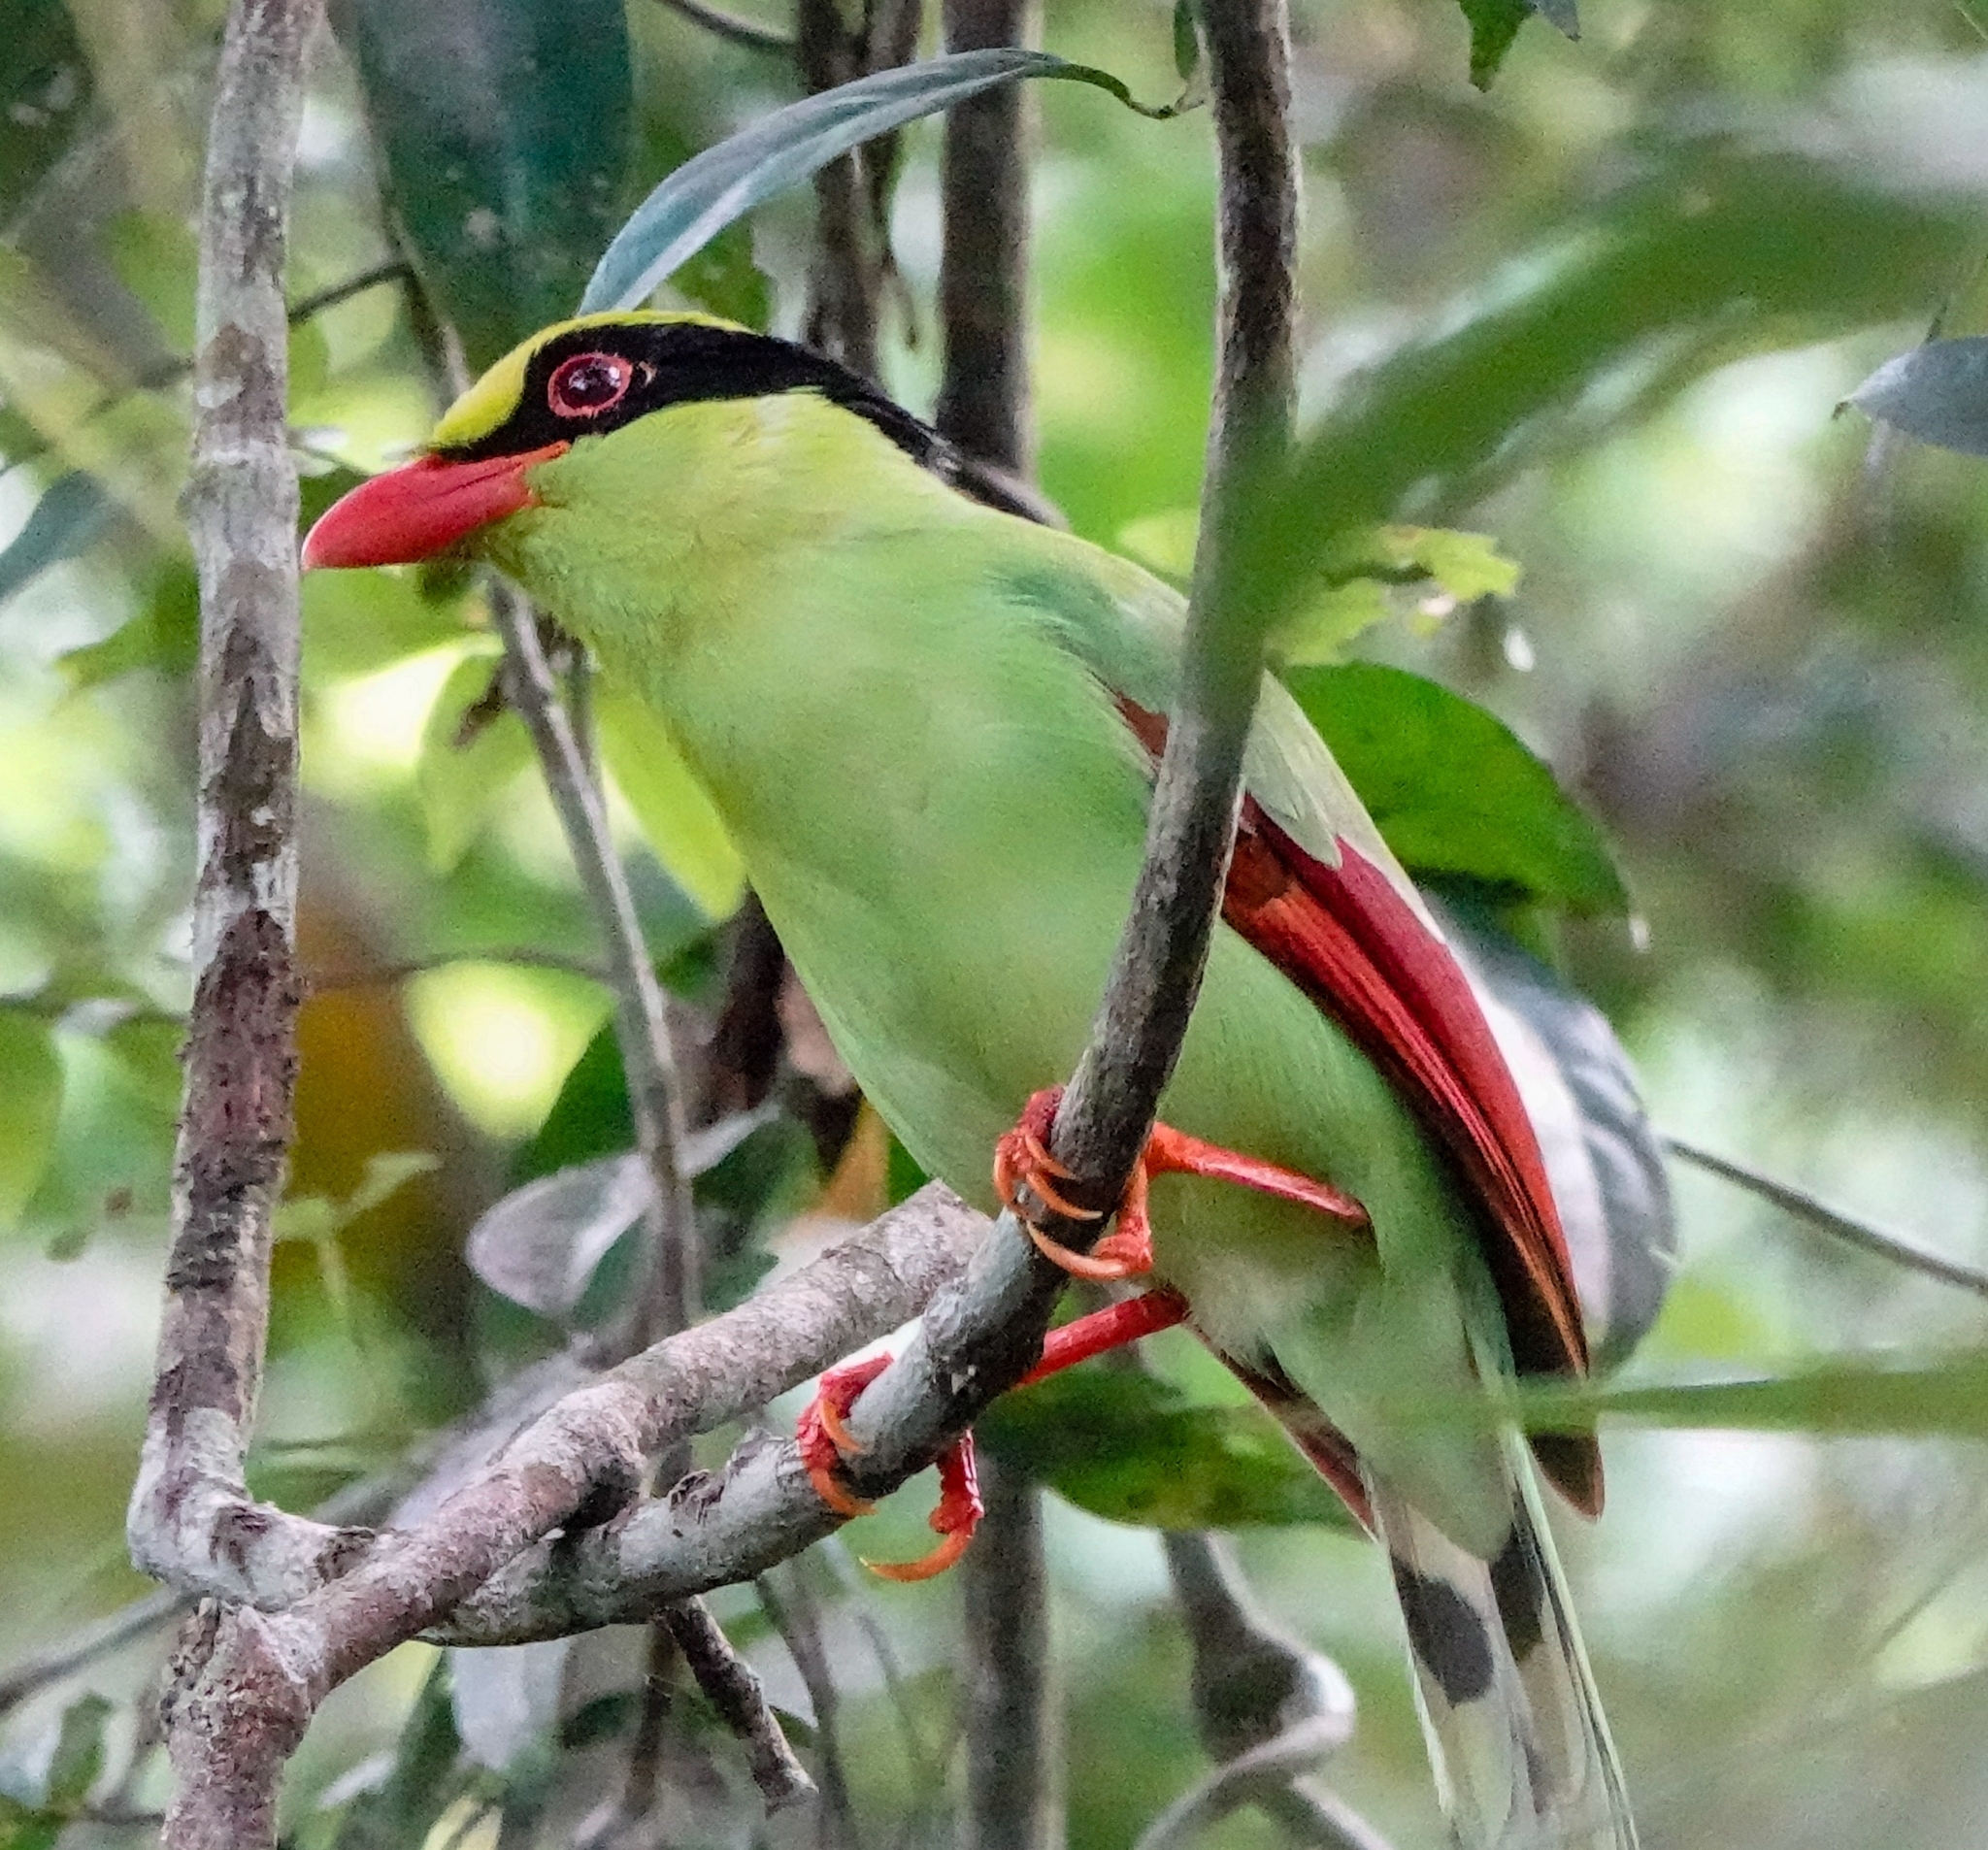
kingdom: Animalia
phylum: Chordata
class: Aves
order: Passeriformes
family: Corvidae
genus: Cissa
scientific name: Cissa chinensis
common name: Common green magpie
